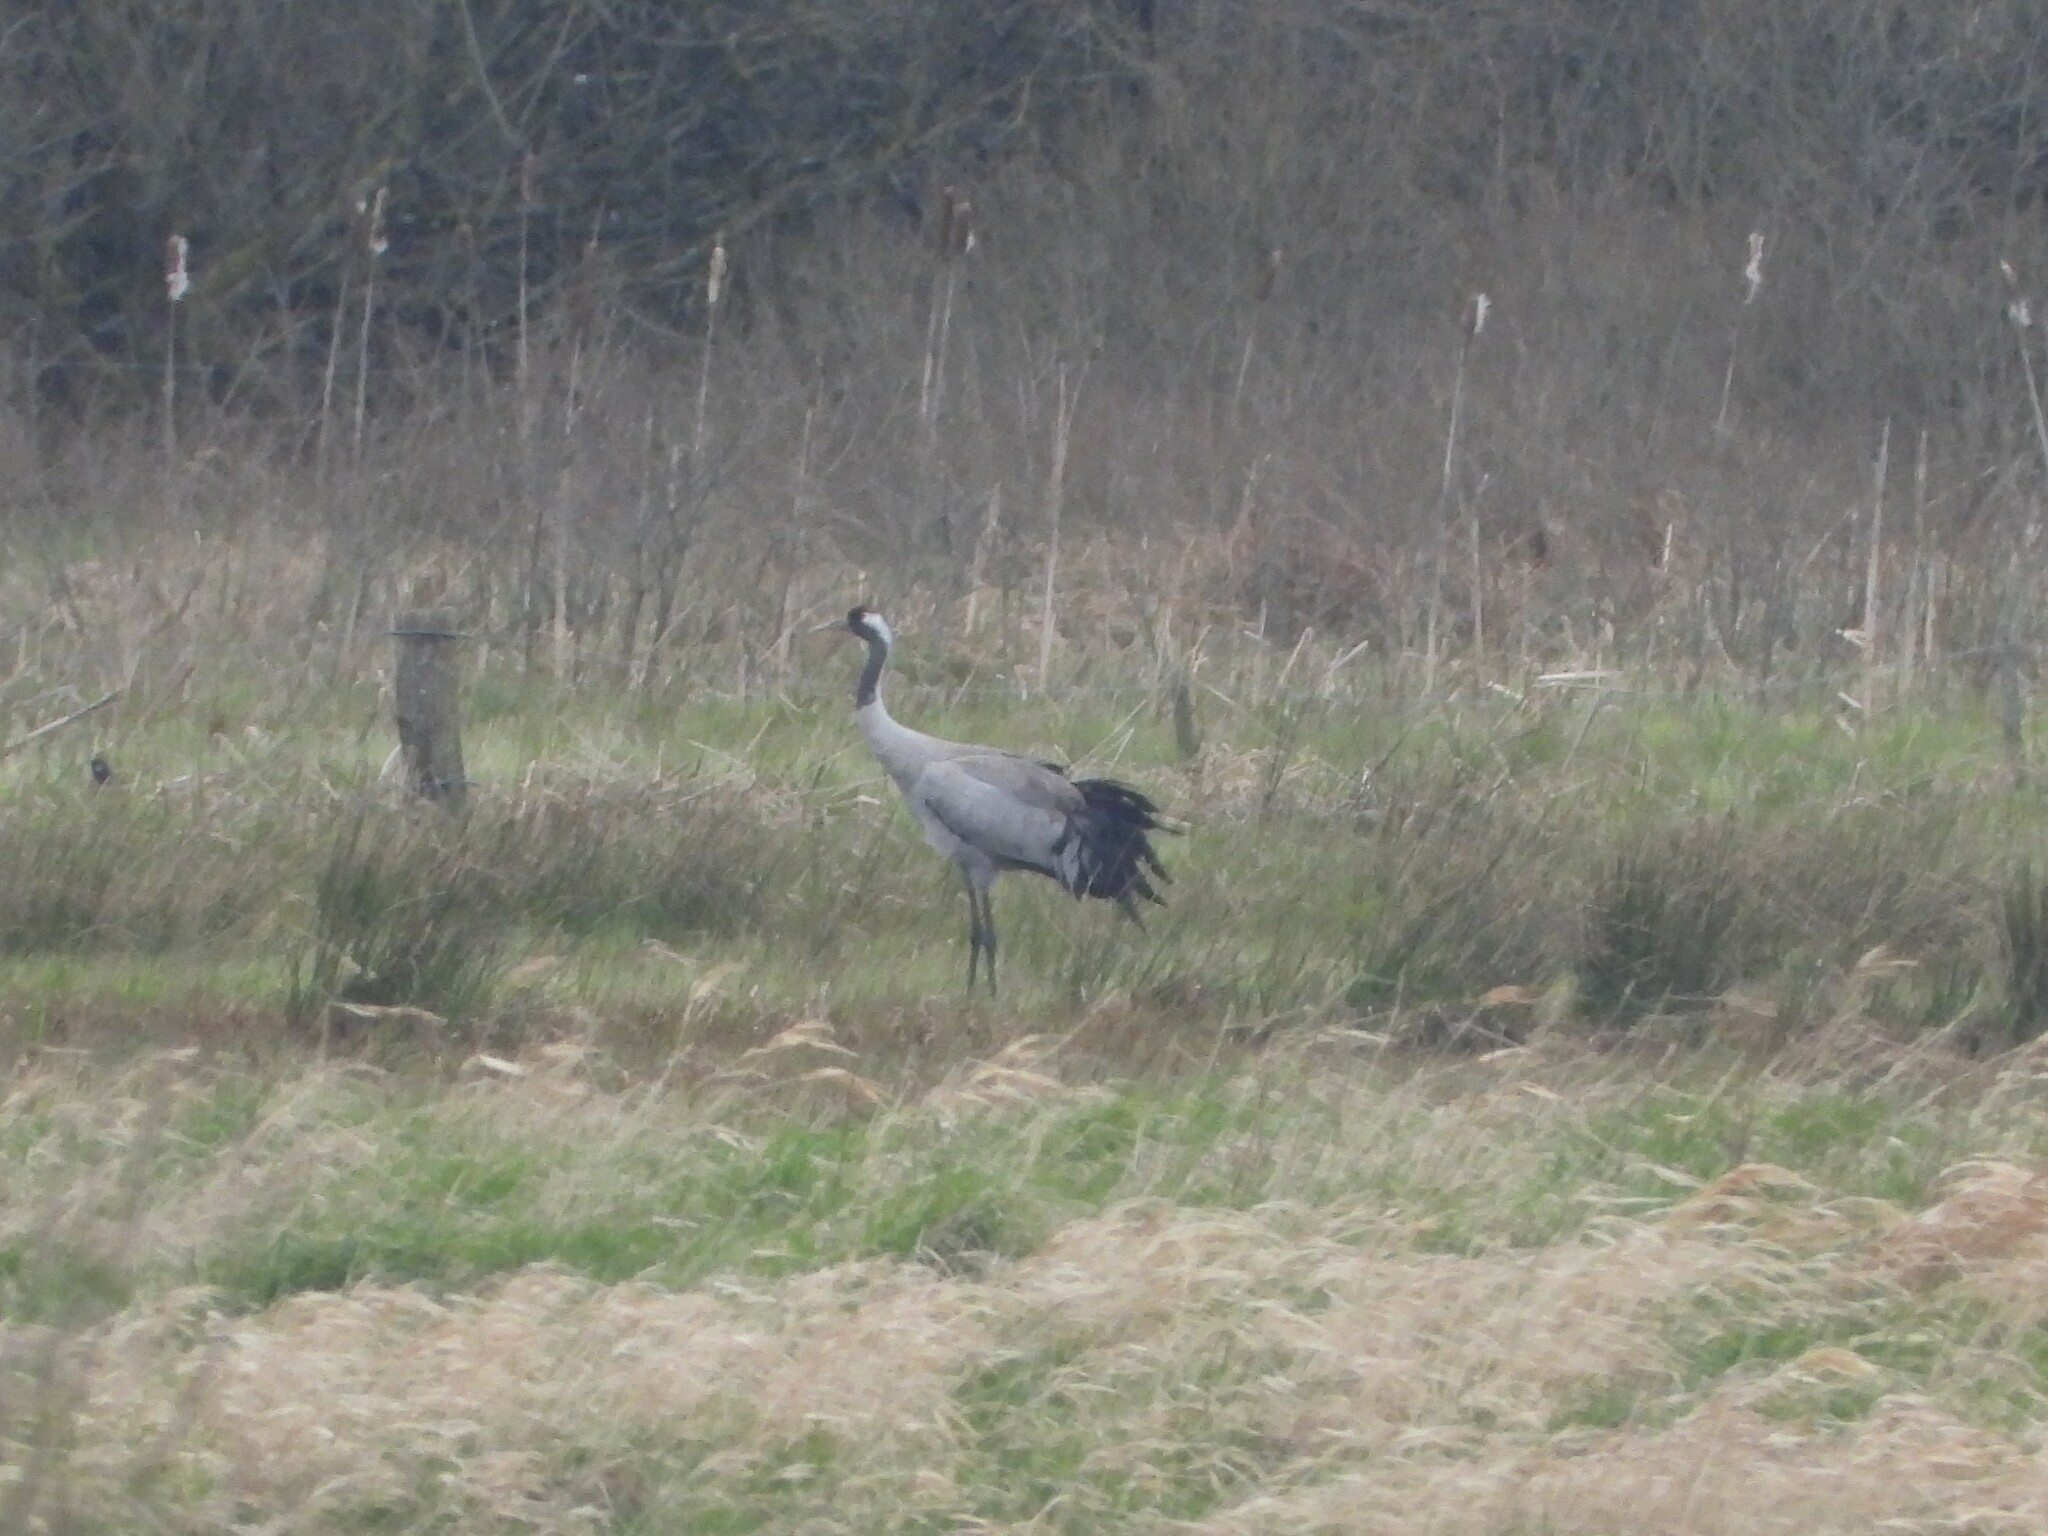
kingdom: Animalia
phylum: Chordata
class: Aves
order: Gruiformes
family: Gruidae
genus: Grus
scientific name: Grus grus
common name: Common crane
